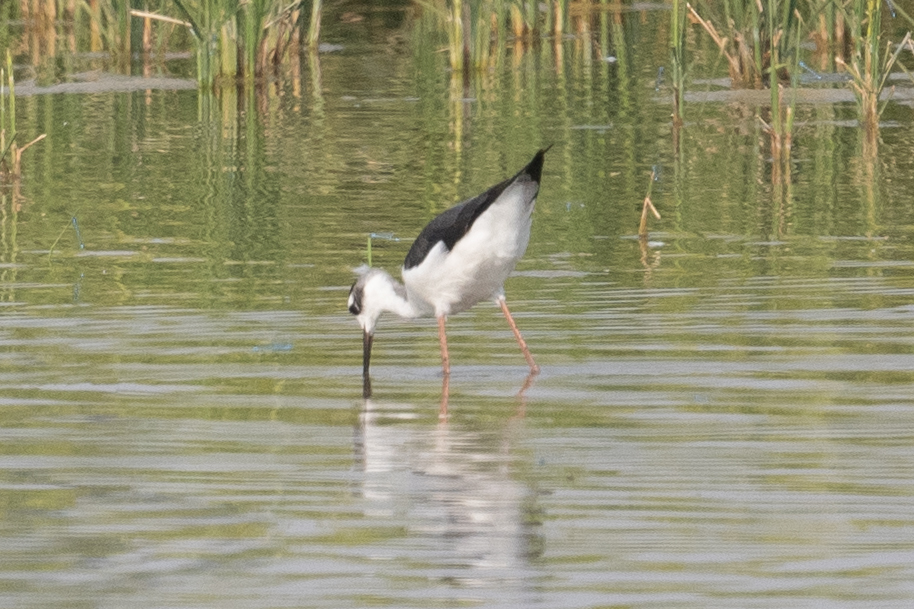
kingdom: Animalia
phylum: Chordata
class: Aves
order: Charadriiformes
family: Recurvirostridae
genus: Himantopus
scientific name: Himantopus mexicanus
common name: Black-necked stilt
